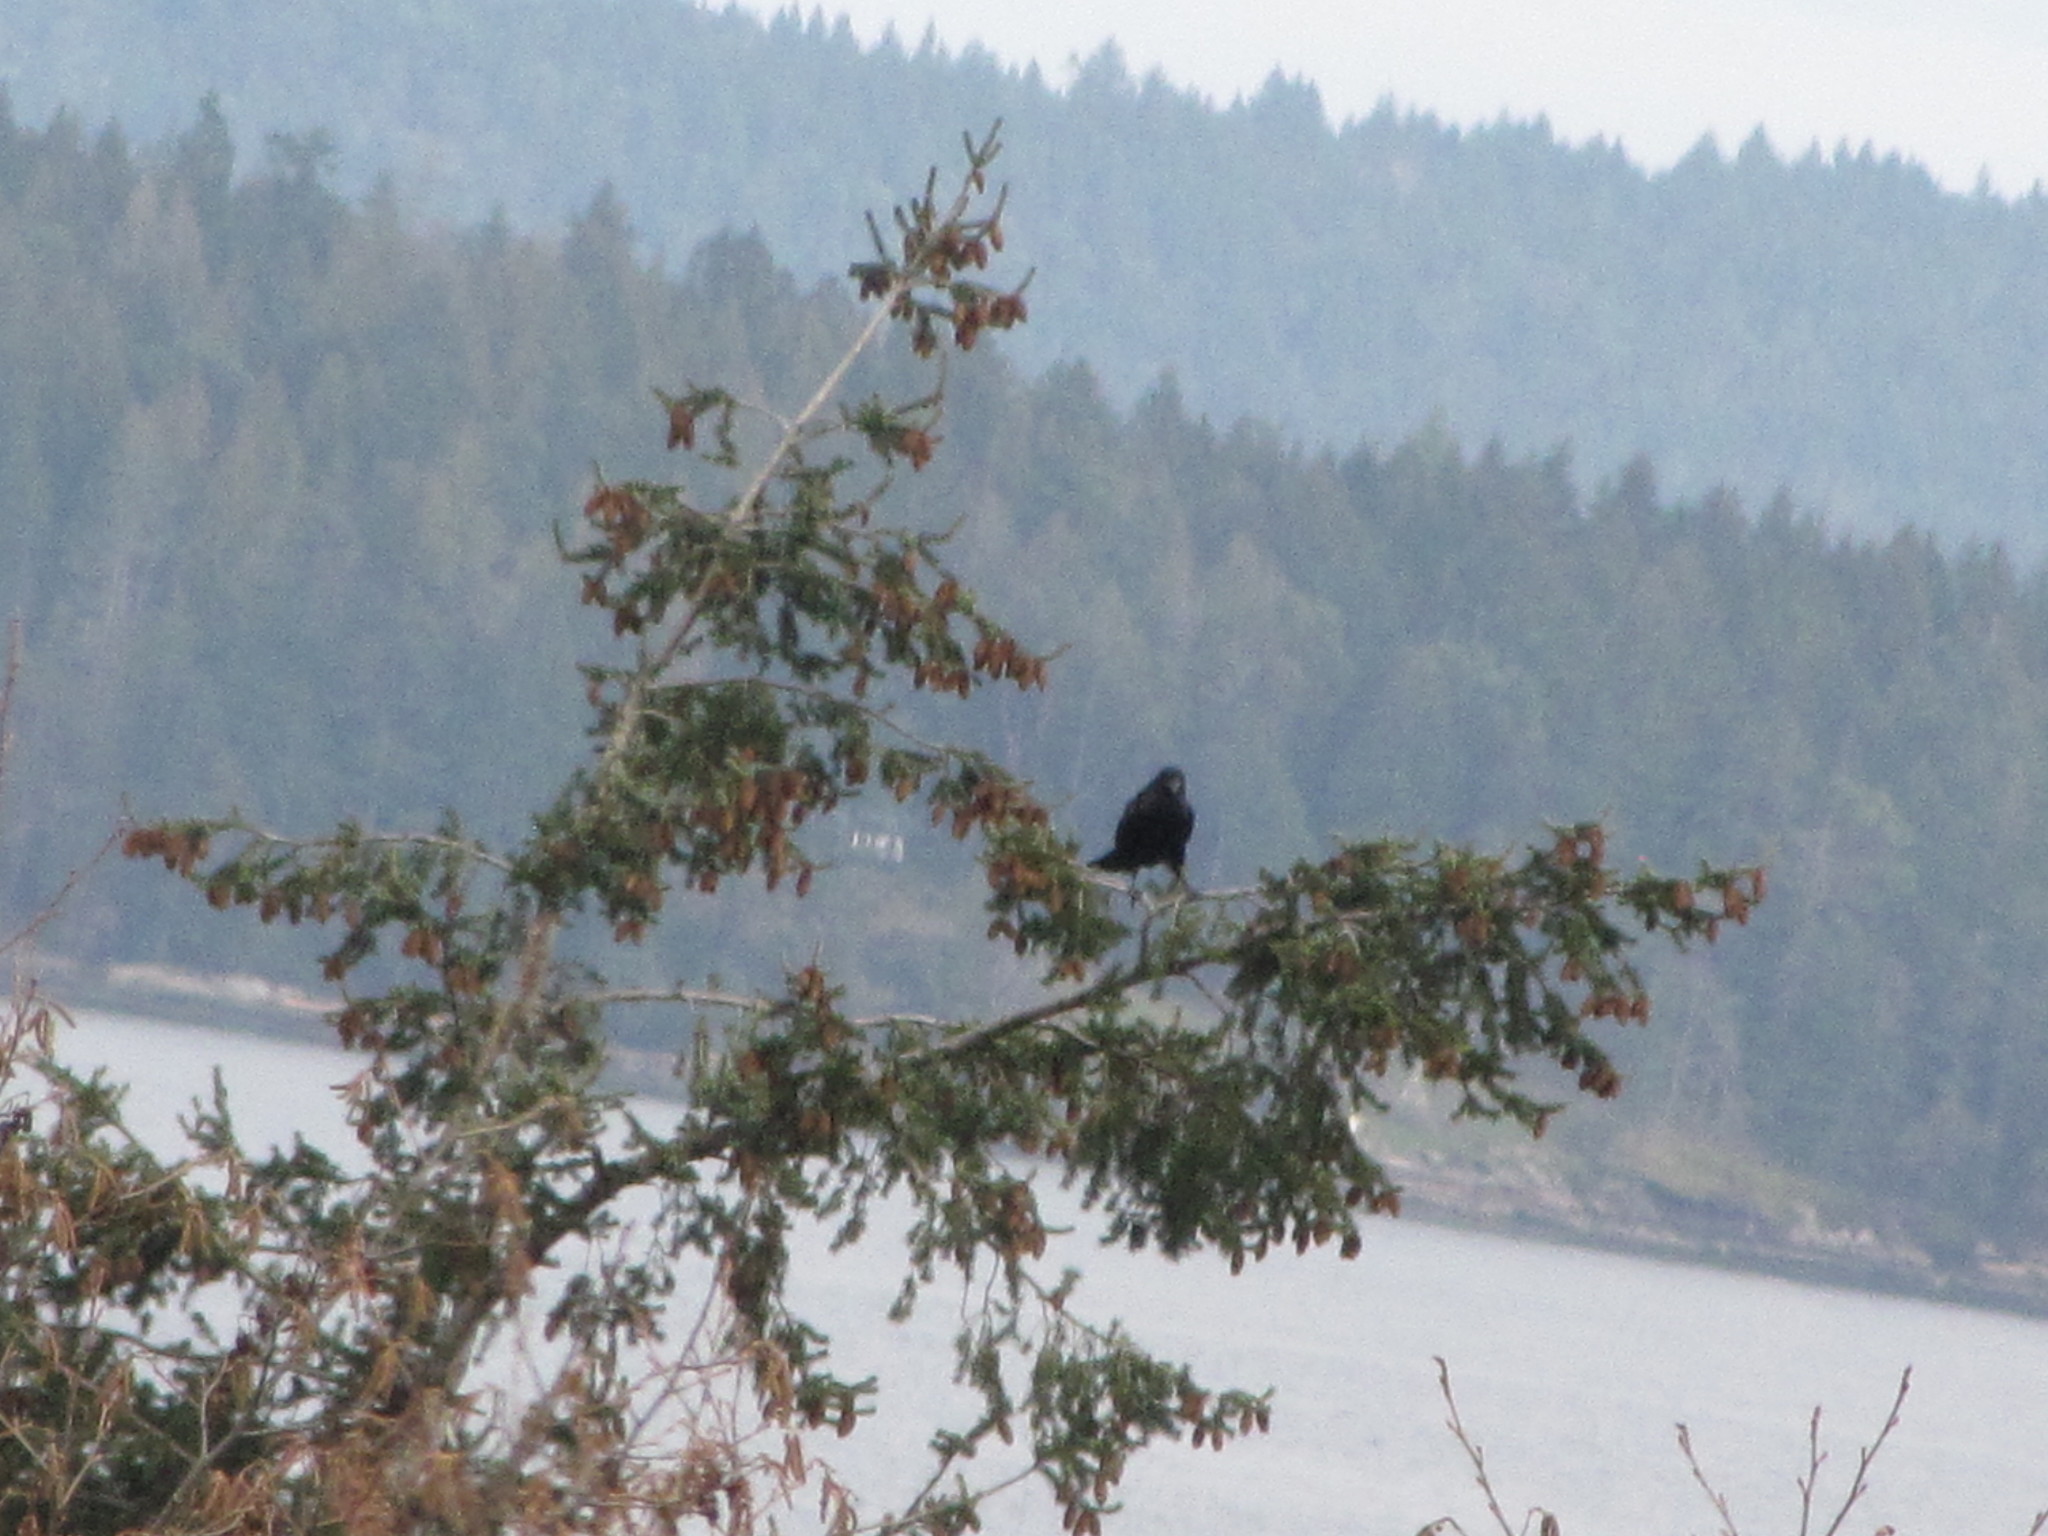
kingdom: Animalia
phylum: Chordata
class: Aves
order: Passeriformes
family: Corvidae
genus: Corvus
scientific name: Corvus corax
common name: Common raven
